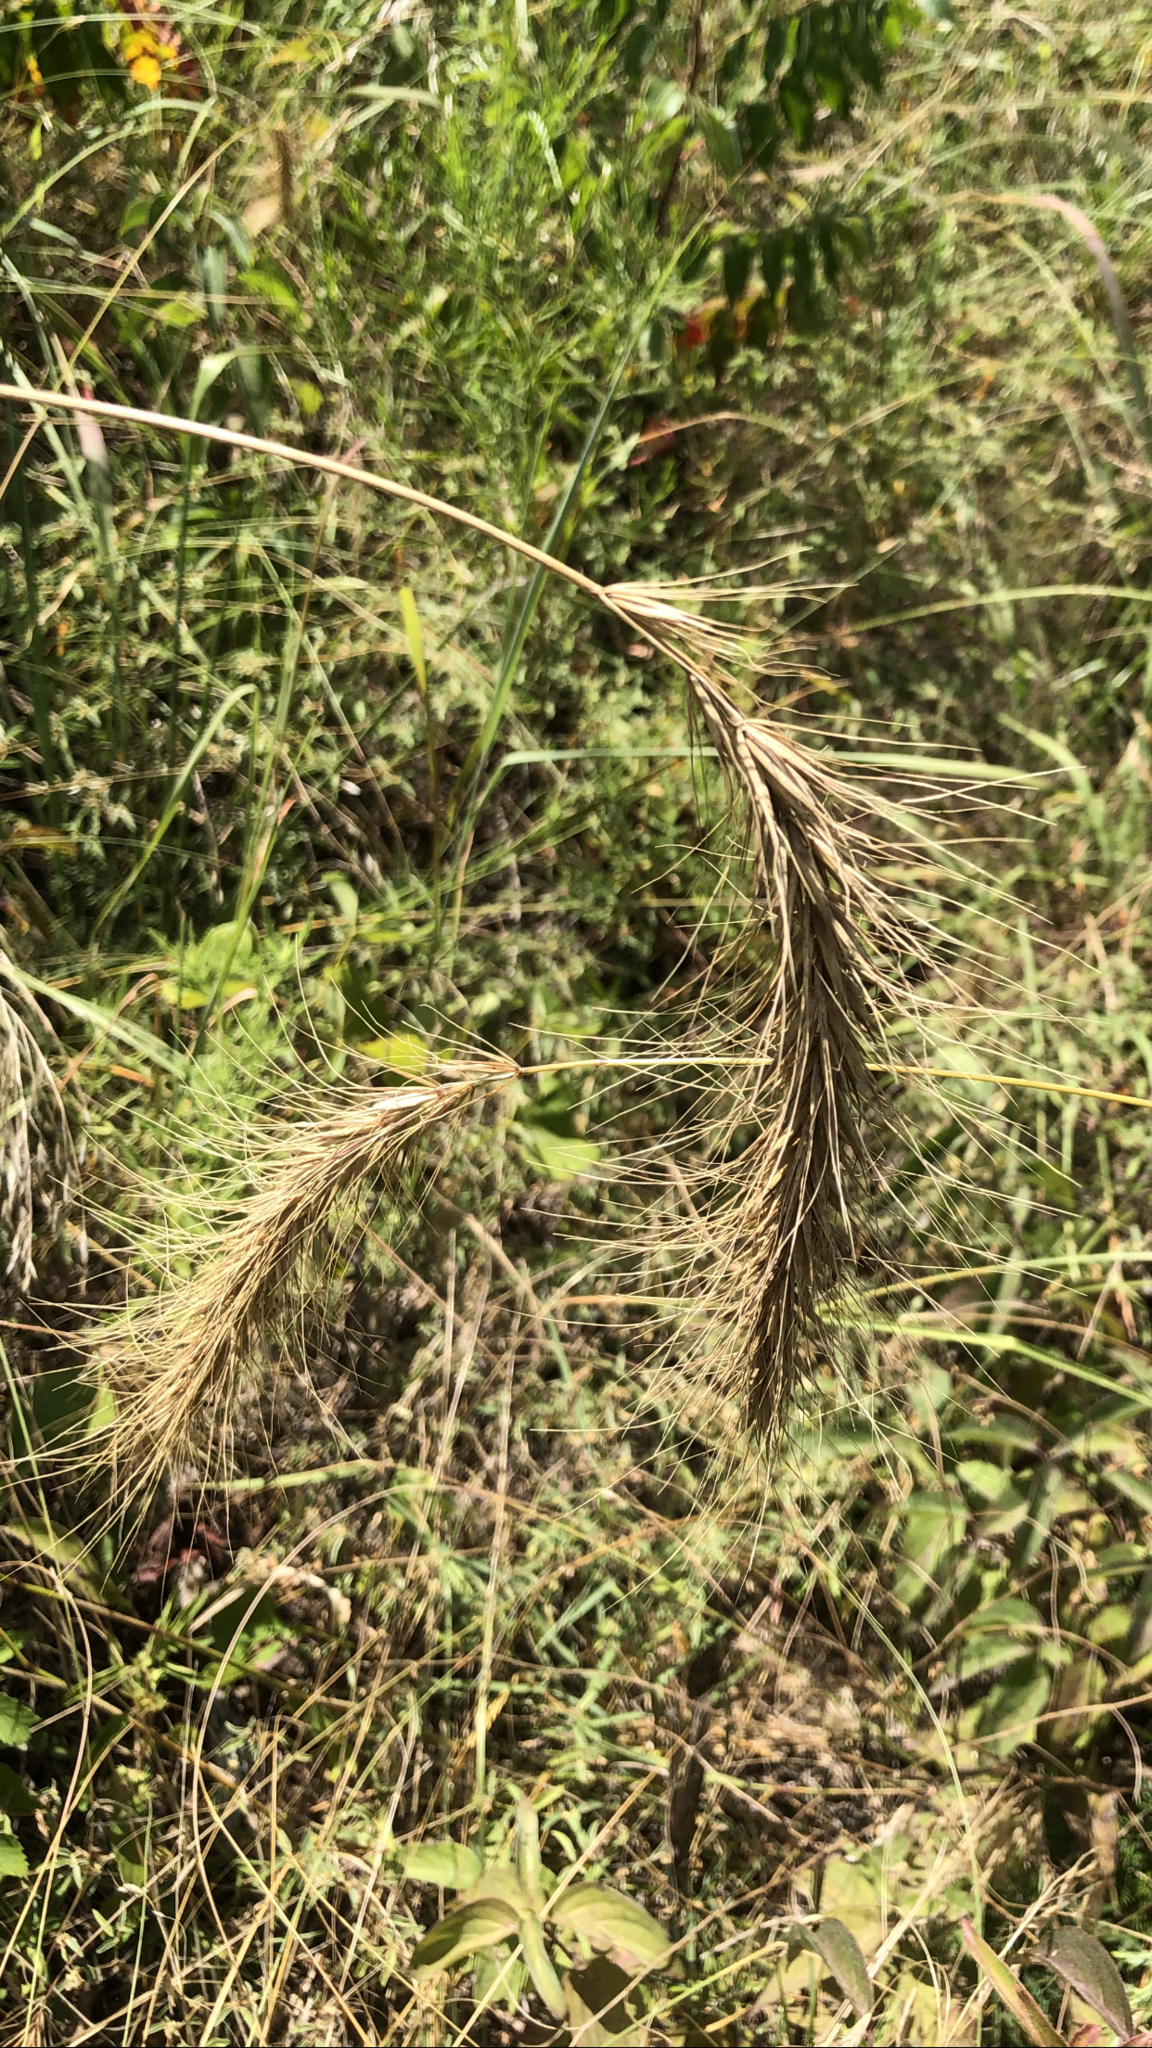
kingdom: Plantae
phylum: Tracheophyta
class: Liliopsida
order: Poales
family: Poaceae
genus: Elymus
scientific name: Elymus canadensis
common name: Canada wild rye
